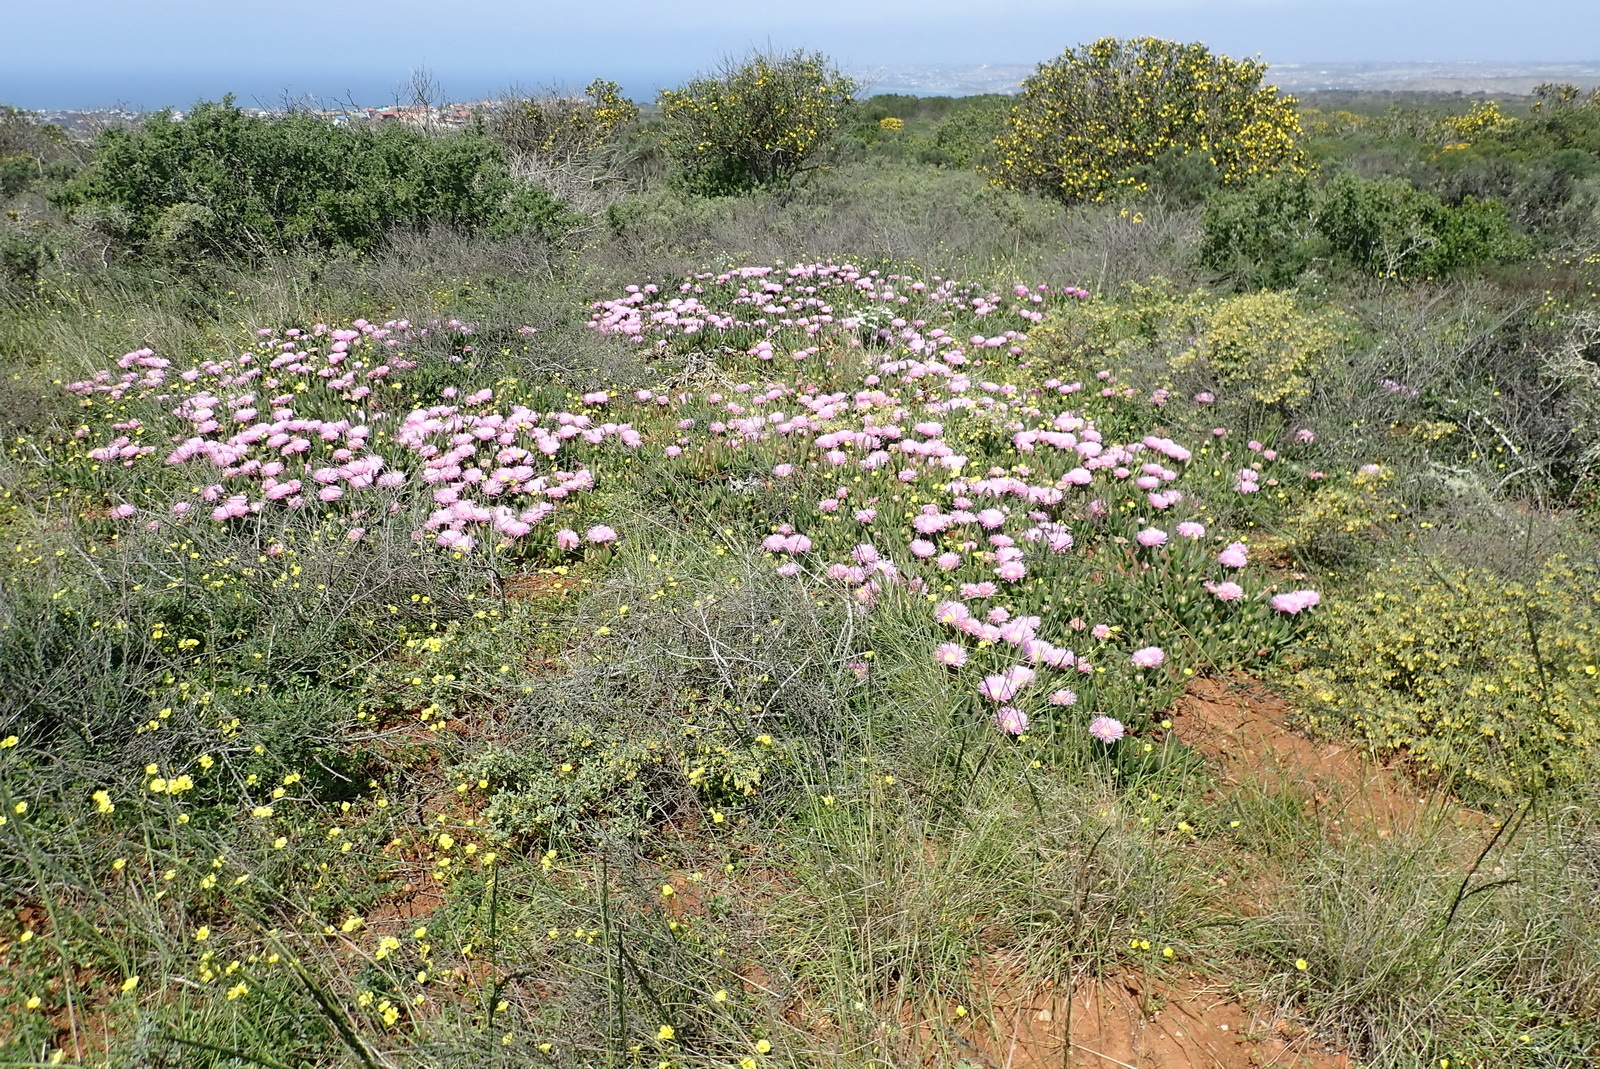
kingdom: Plantae
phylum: Tracheophyta
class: Magnoliopsida
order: Caryophyllales
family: Aizoaceae
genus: Carpobrotus
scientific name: Carpobrotus mellei
